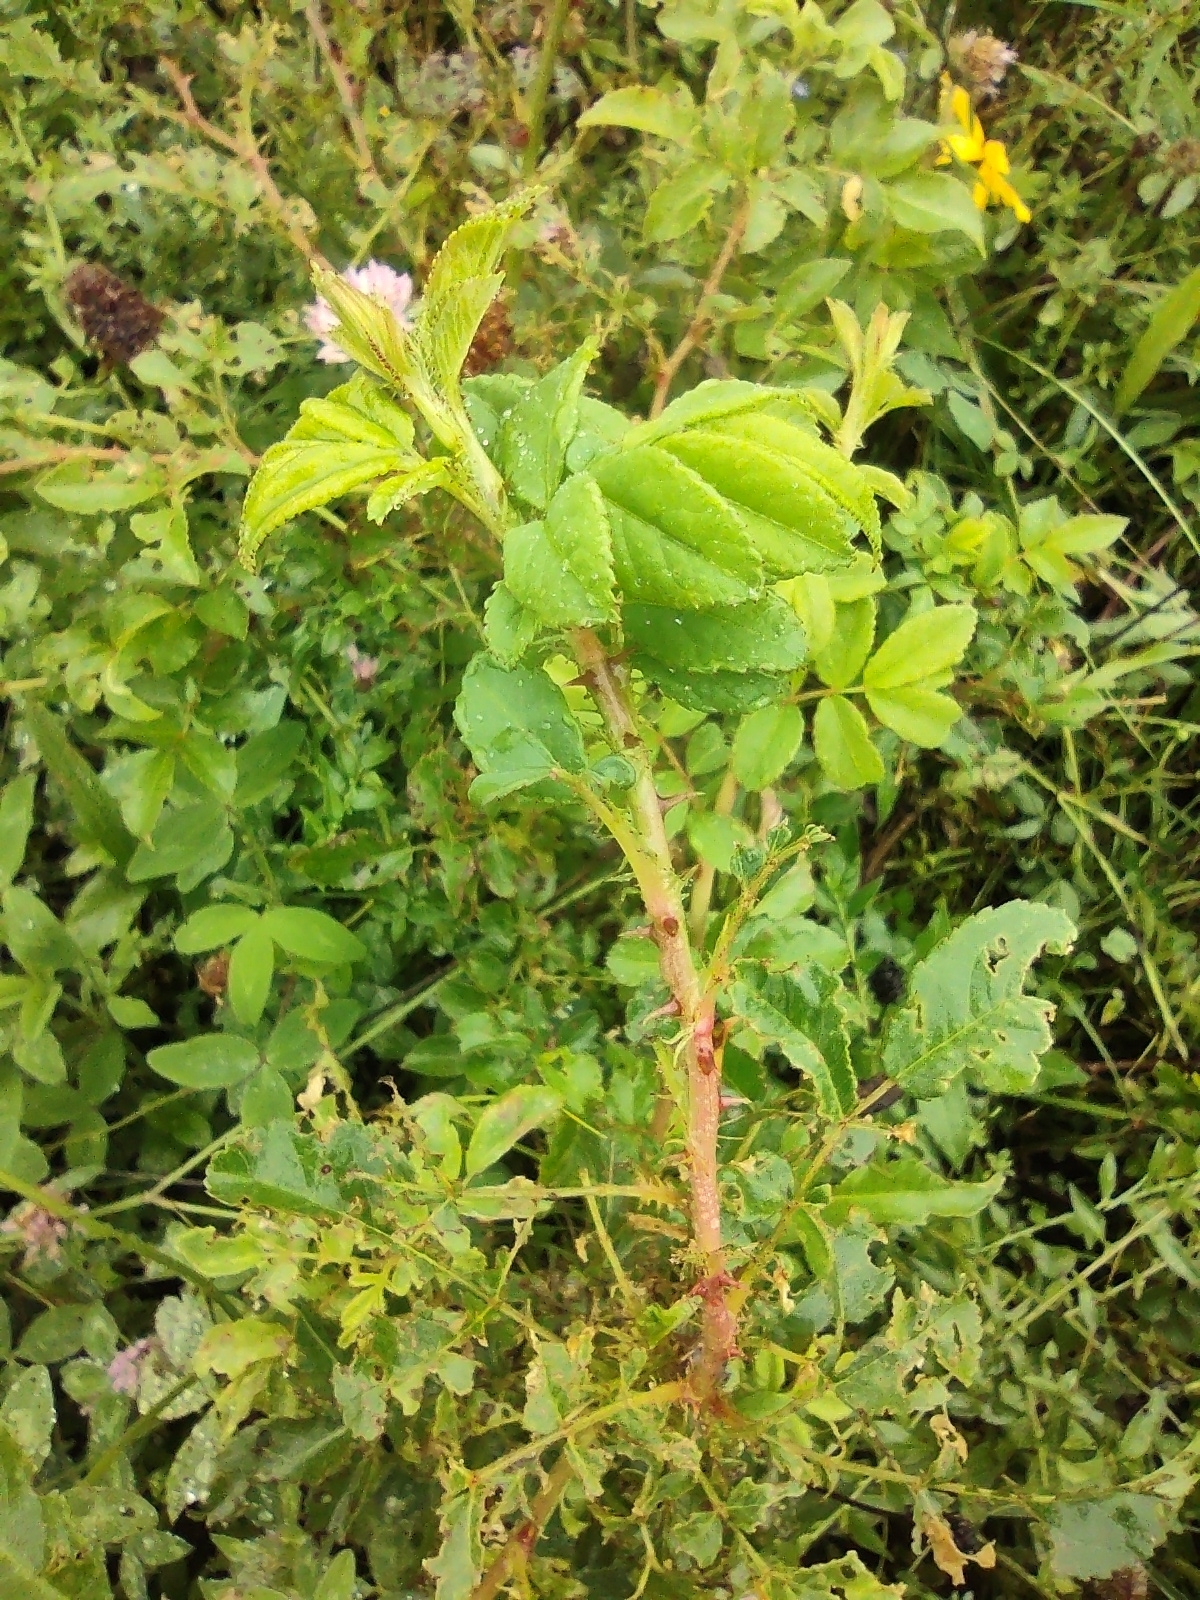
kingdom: Plantae
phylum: Tracheophyta
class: Magnoliopsida
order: Rosales
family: Rosaceae
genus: Rosa
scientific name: Rosa multiflora
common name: Multiflora rose
